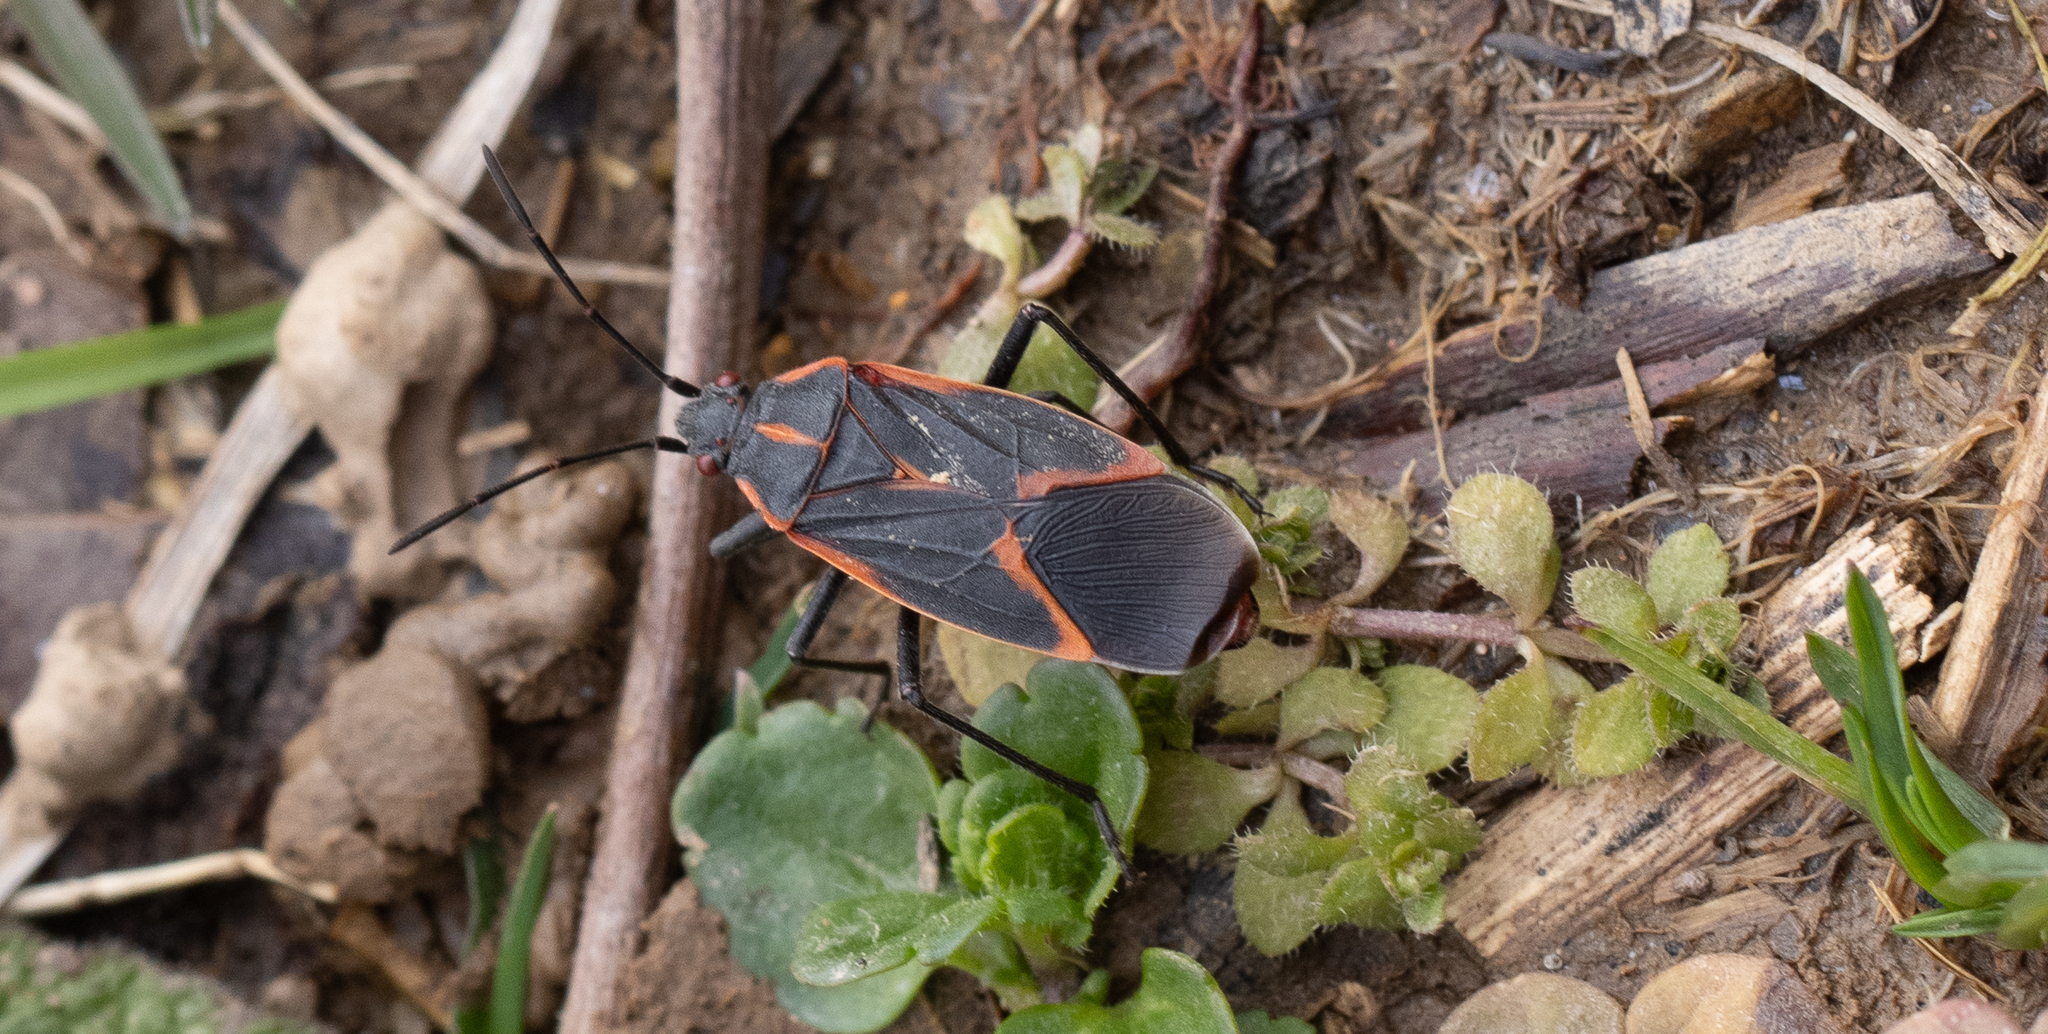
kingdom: Animalia
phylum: Arthropoda
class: Insecta
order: Hemiptera
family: Rhopalidae
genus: Boisea
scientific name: Boisea trivittata
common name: Boxelder bug
